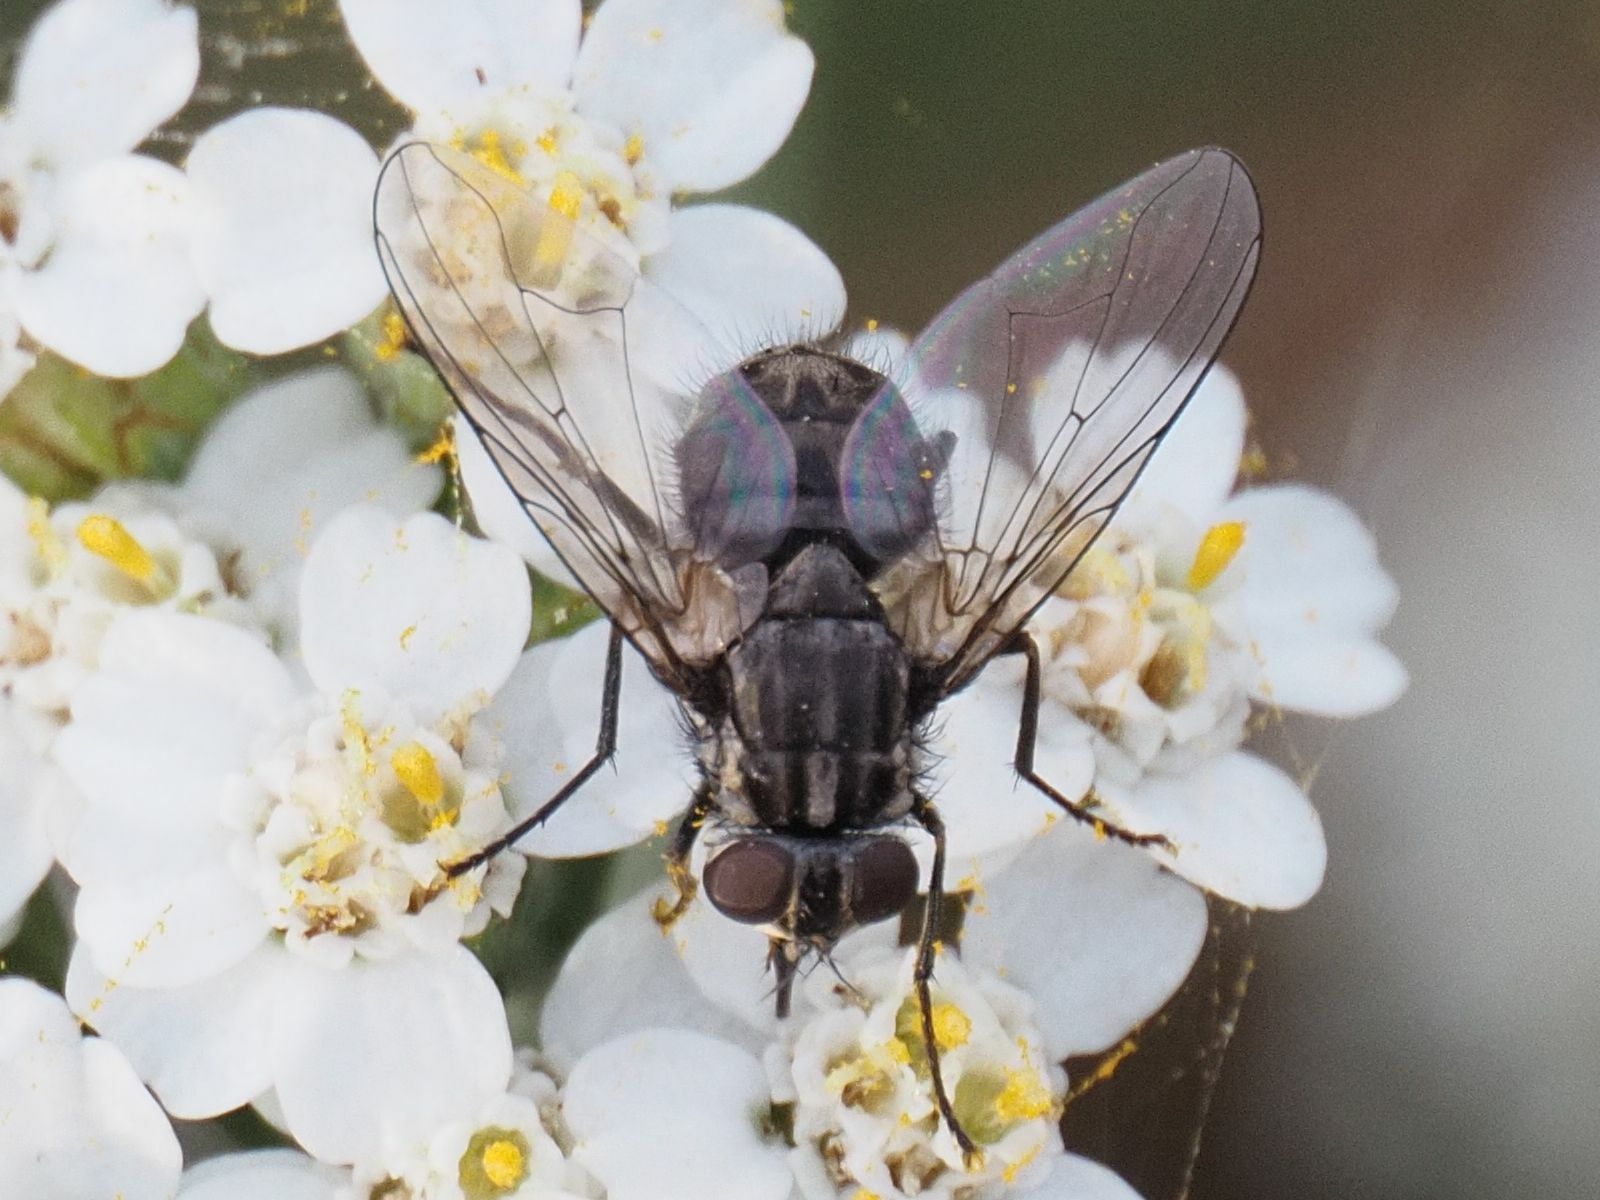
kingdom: Animalia
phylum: Arthropoda
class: Insecta
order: Diptera
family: Muscidae
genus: Stomoxys
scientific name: Stomoxys calcitrans
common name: Stable fly
